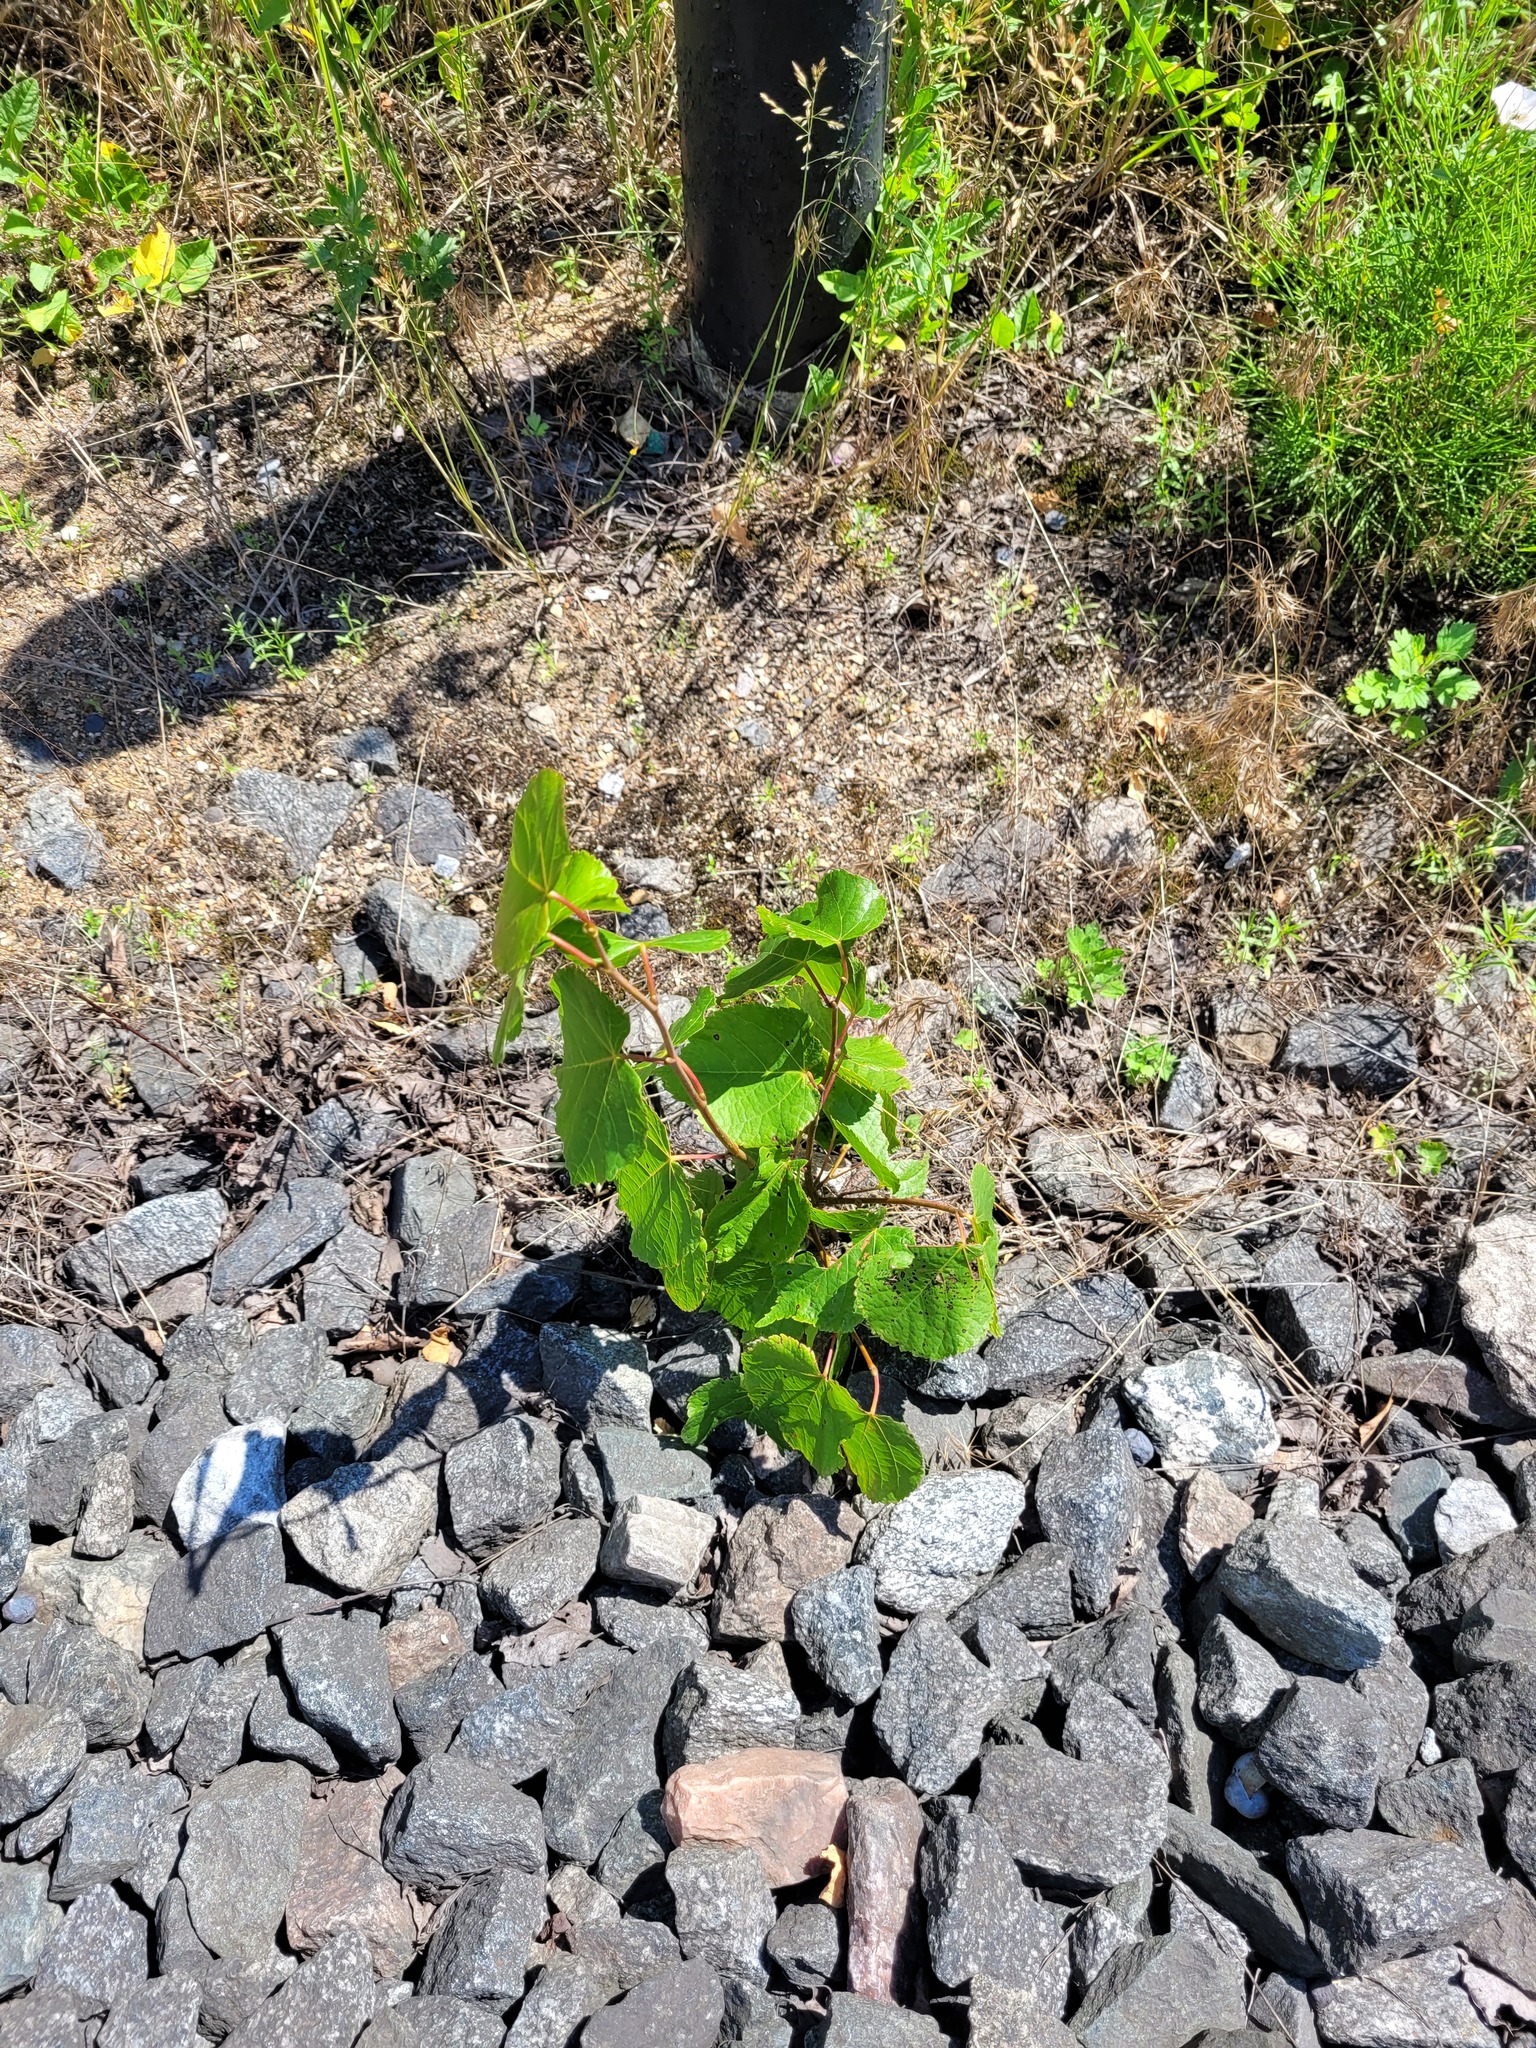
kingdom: Plantae
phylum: Tracheophyta
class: Magnoliopsida
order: Malvales
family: Malvaceae
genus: Tilia
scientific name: Tilia cordata
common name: Small-leaved lime
